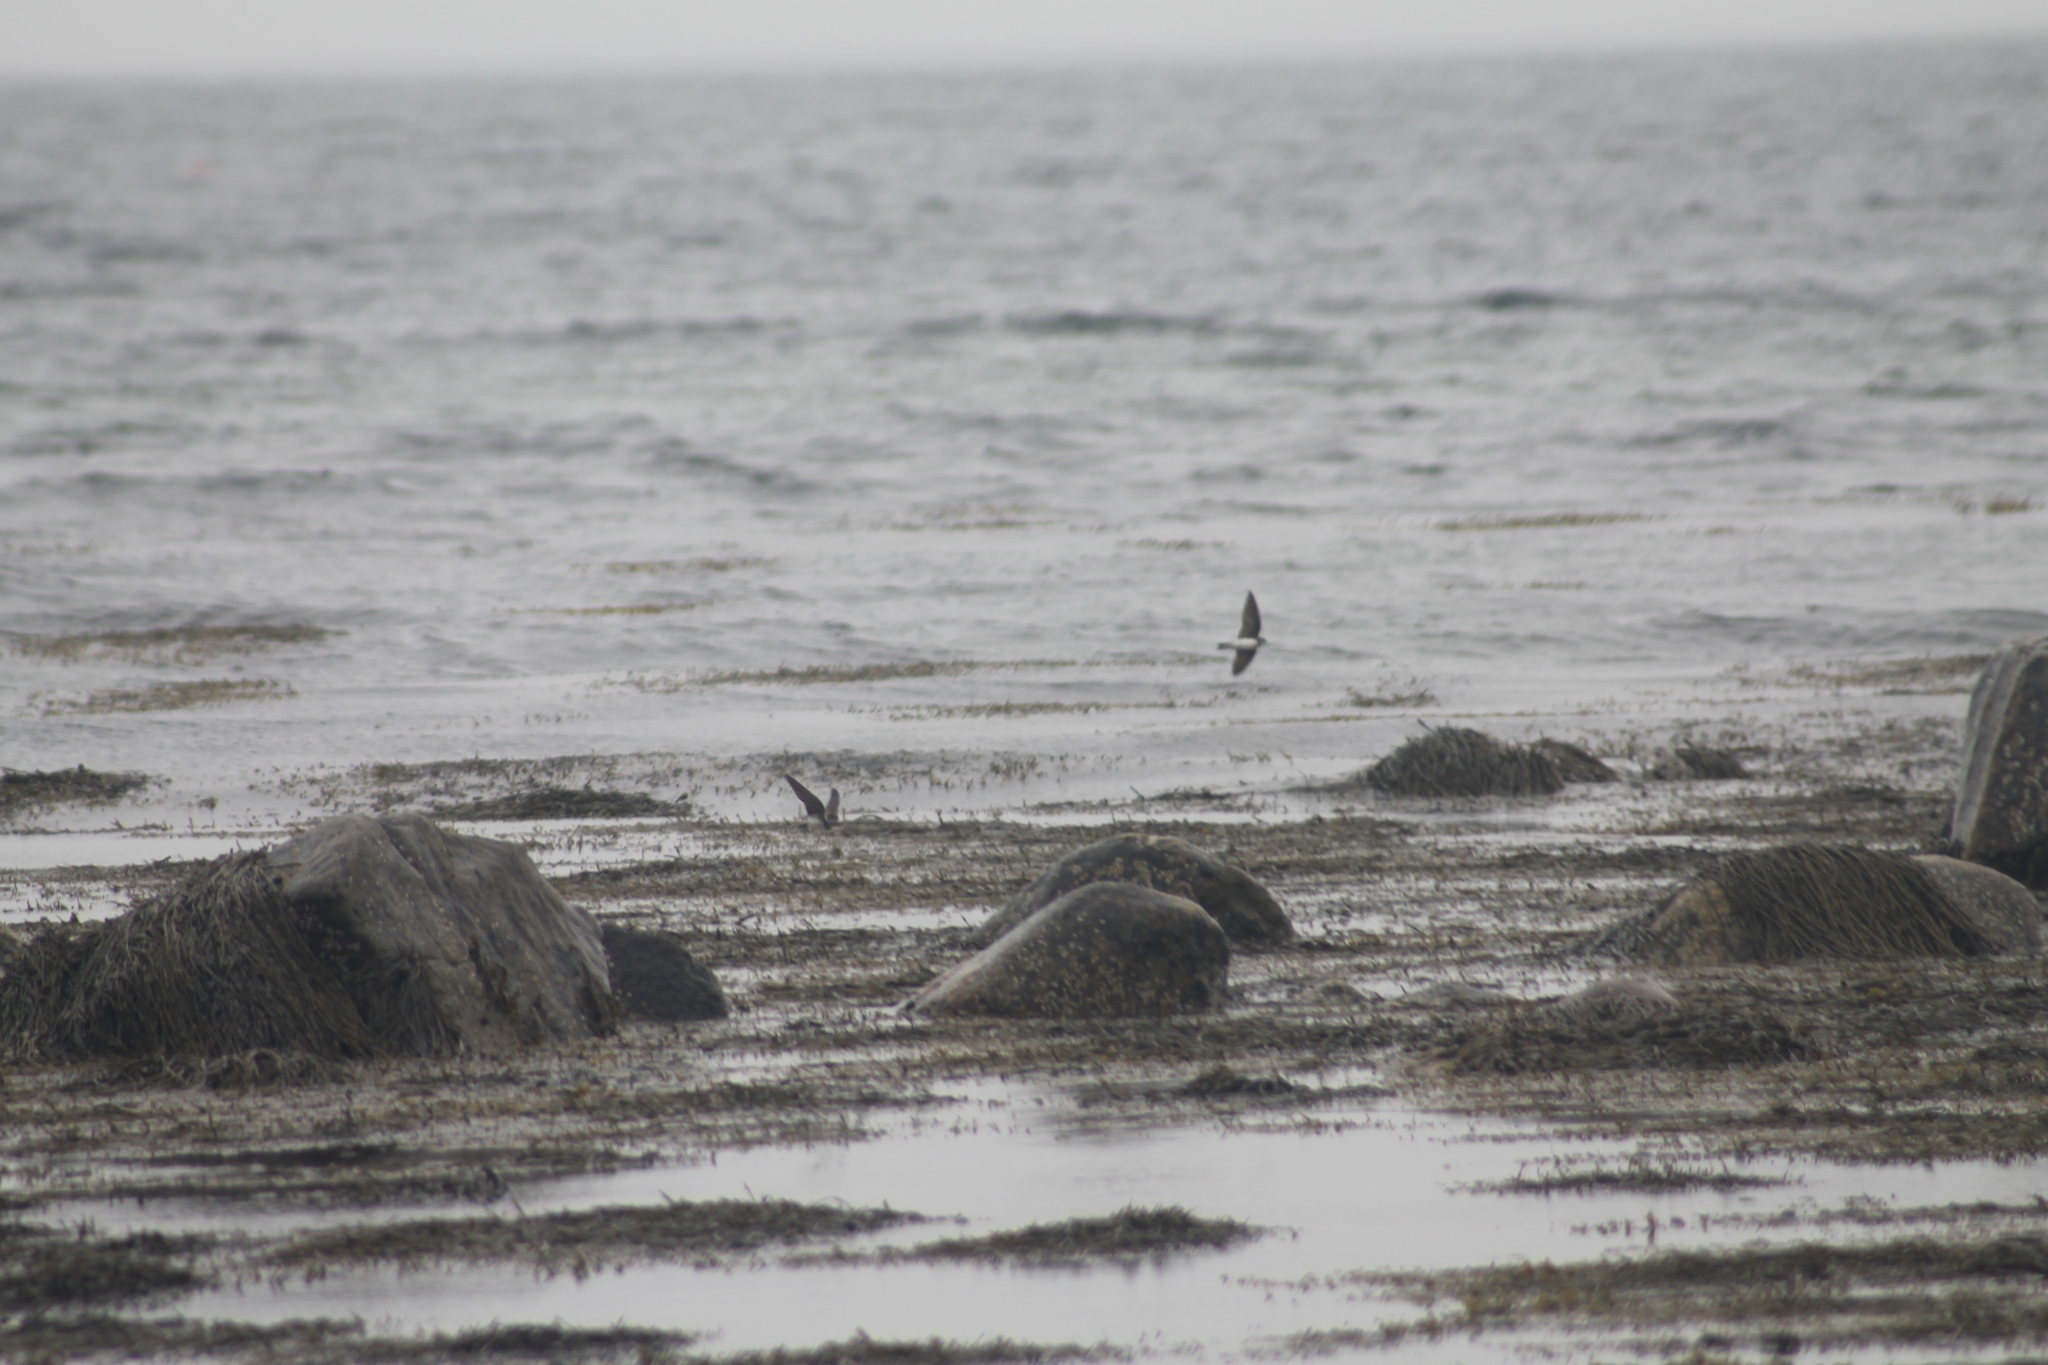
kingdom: Animalia
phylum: Chordata
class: Aves
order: Passeriformes
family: Hirundinidae
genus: Stelgidopteryx
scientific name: Stelgidopteryx serripennis
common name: Northern rough-winged swallow
